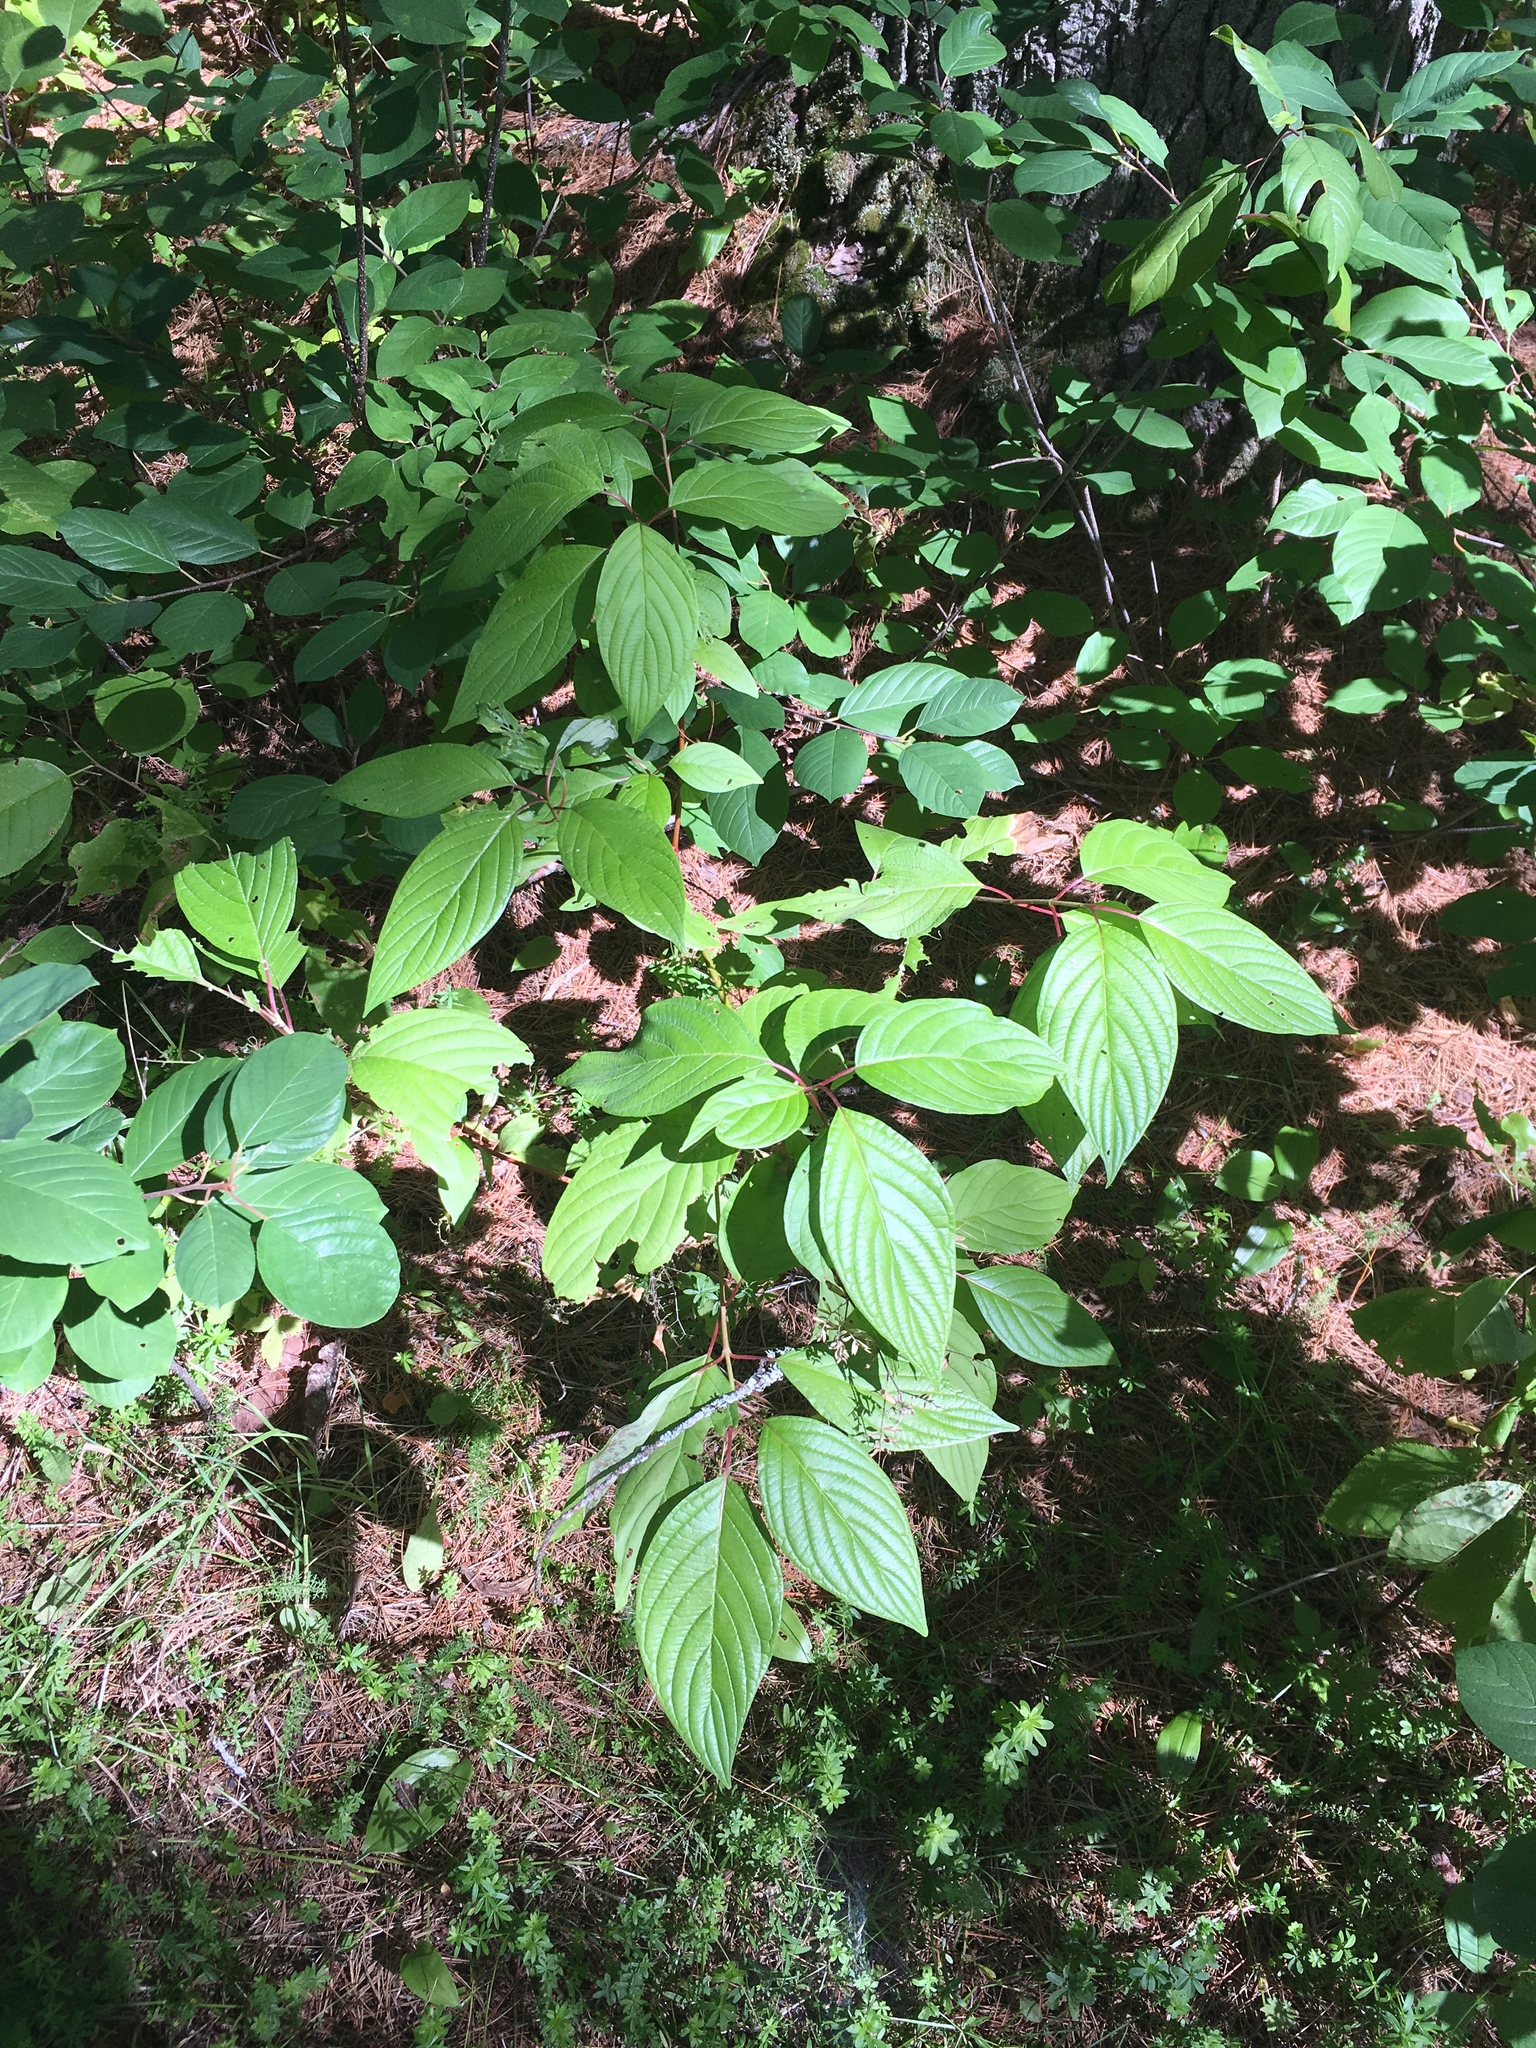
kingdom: Plantae
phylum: Tracheophyta
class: Magnoliopsida
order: Cornales
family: Cornaceae
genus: Cornus
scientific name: Cornus sericea
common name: Red-osier dogwood
